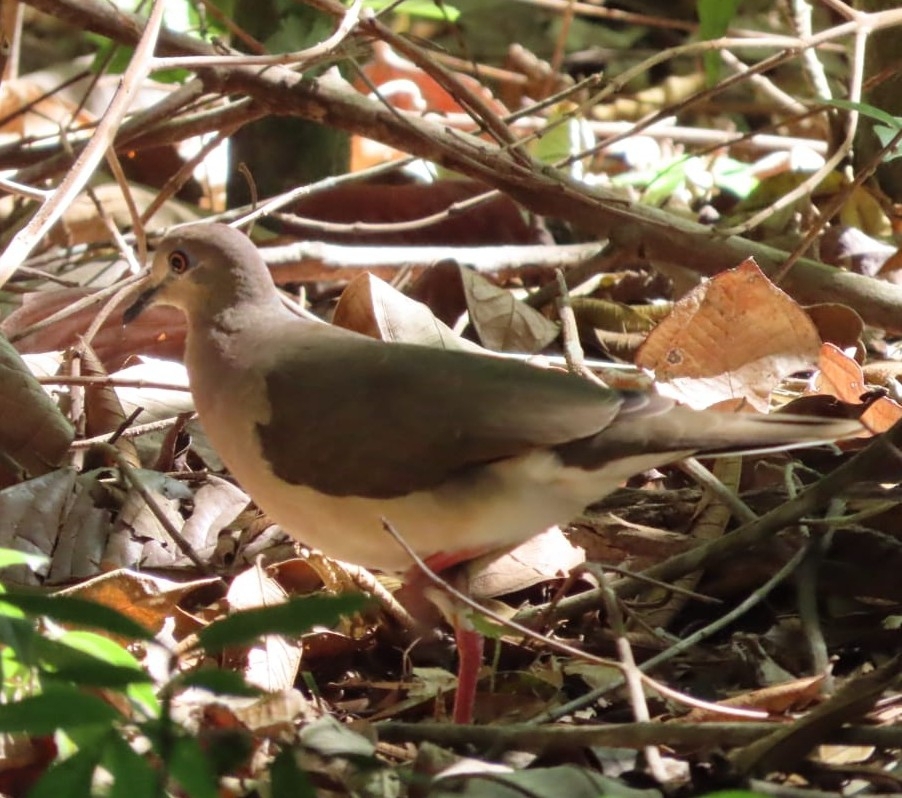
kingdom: Animalia
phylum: Chordata
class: Aves
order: Columbiformes
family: Columbidae
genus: Leptotila
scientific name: Leptotila verreauxi
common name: White-tipped dove
